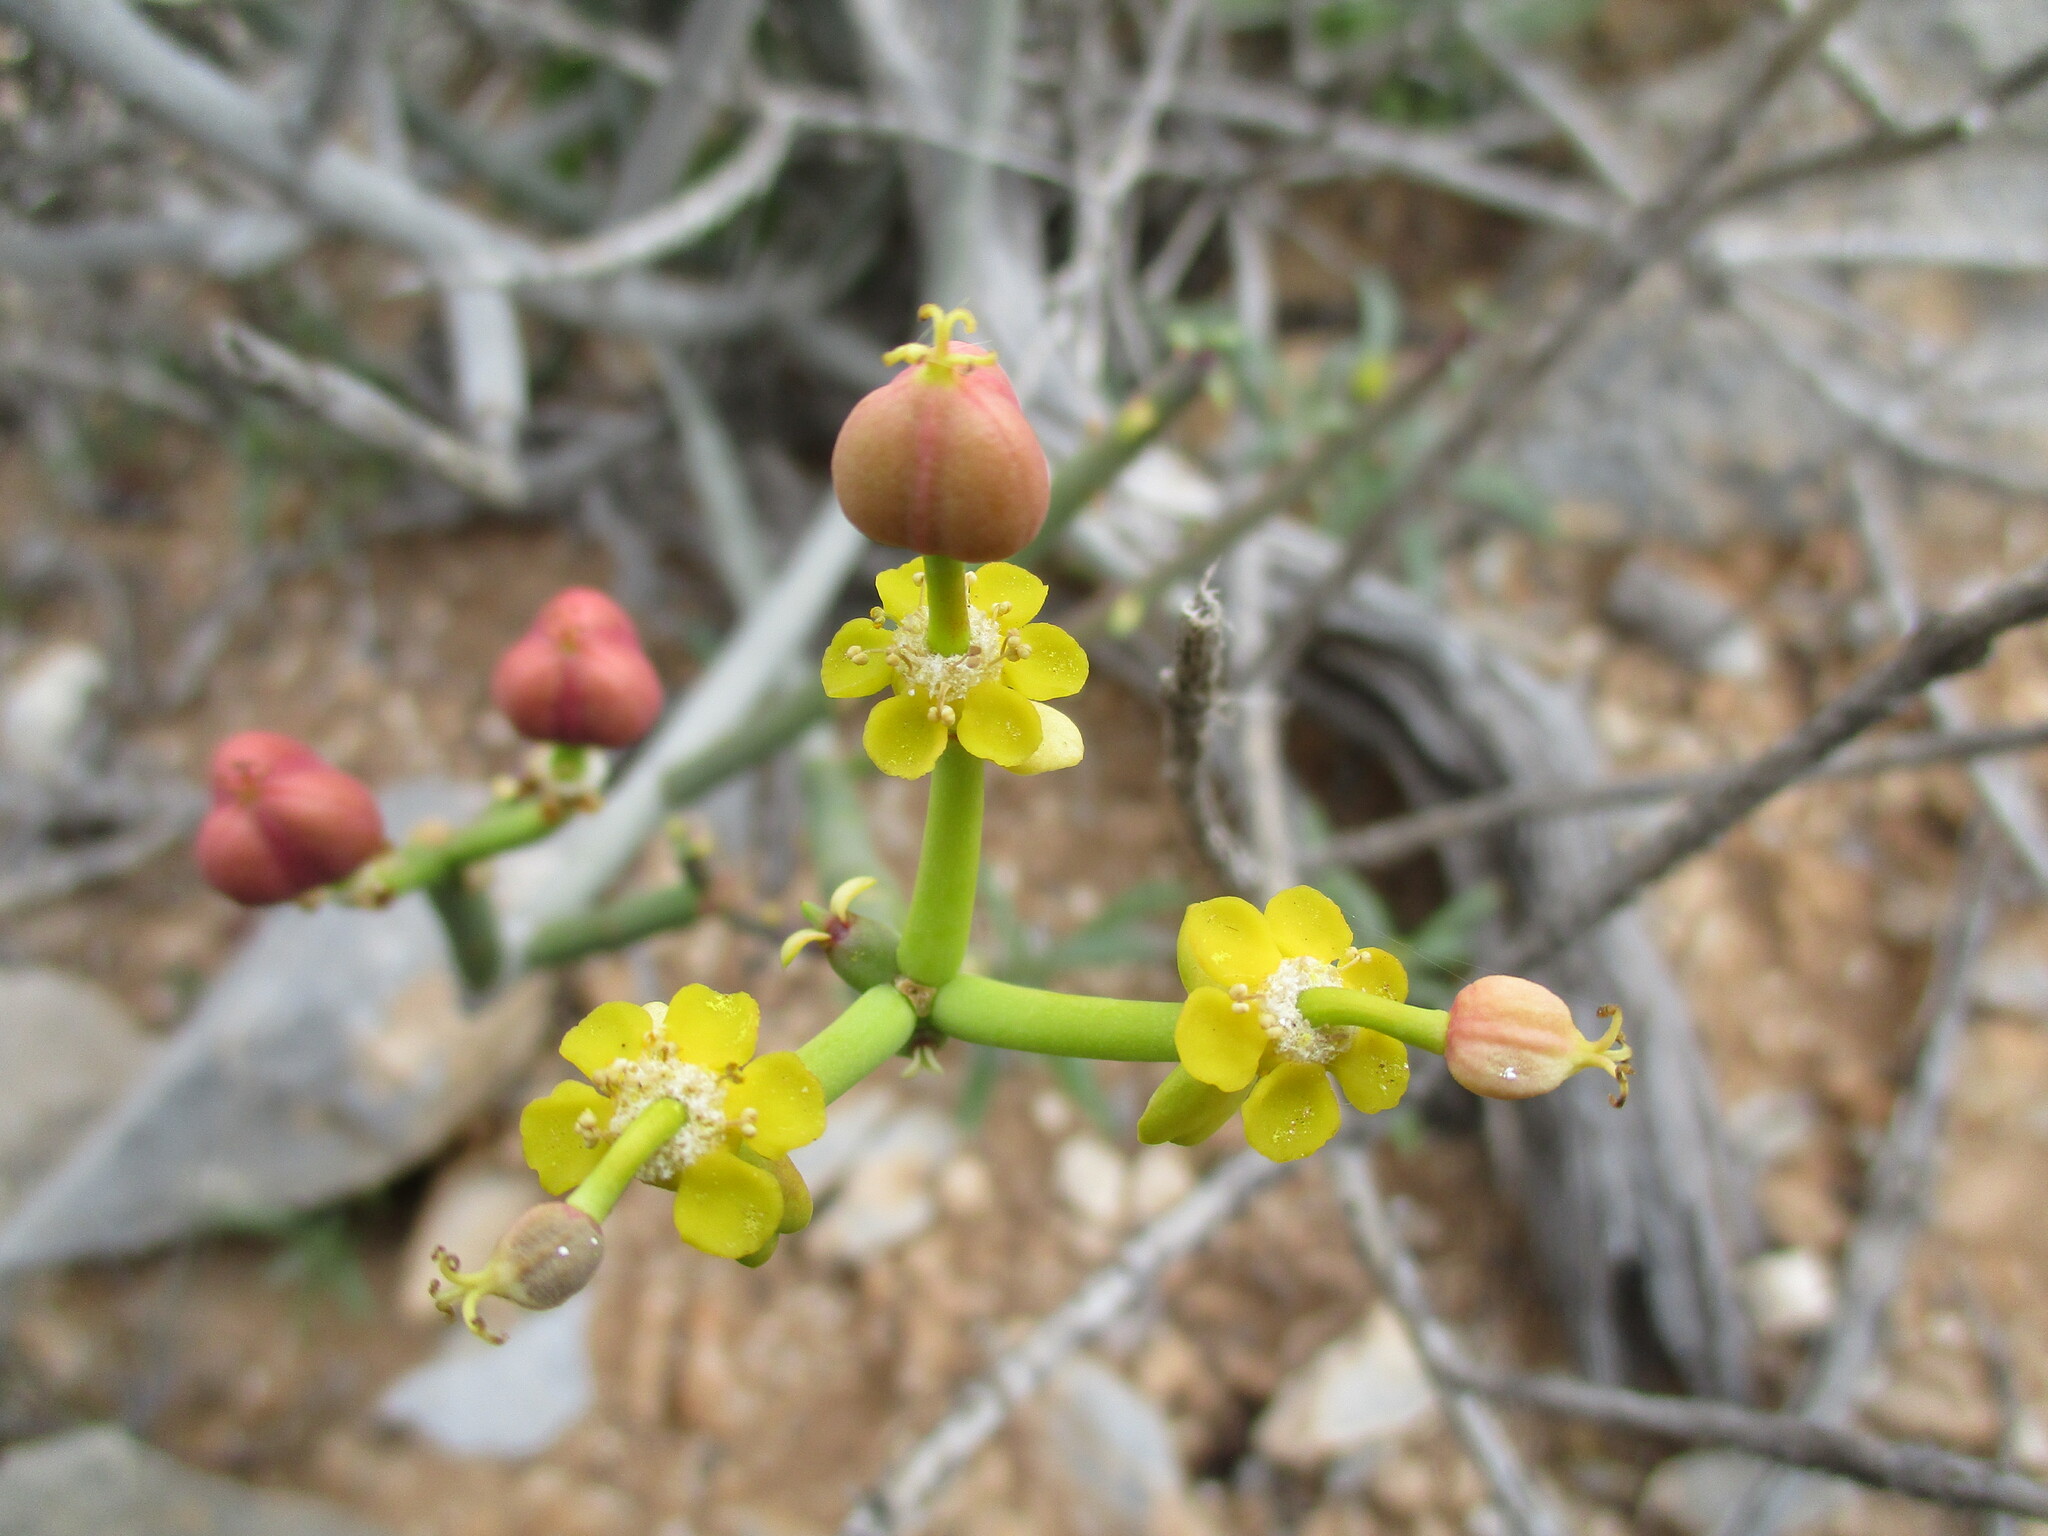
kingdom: Plantae
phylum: Tracheophyta
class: Magnoliopsida
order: Malpighiales
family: Euphorbiaceae
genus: Euphorbia
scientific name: Euphorbia mauritanica
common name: Jackal's-food
